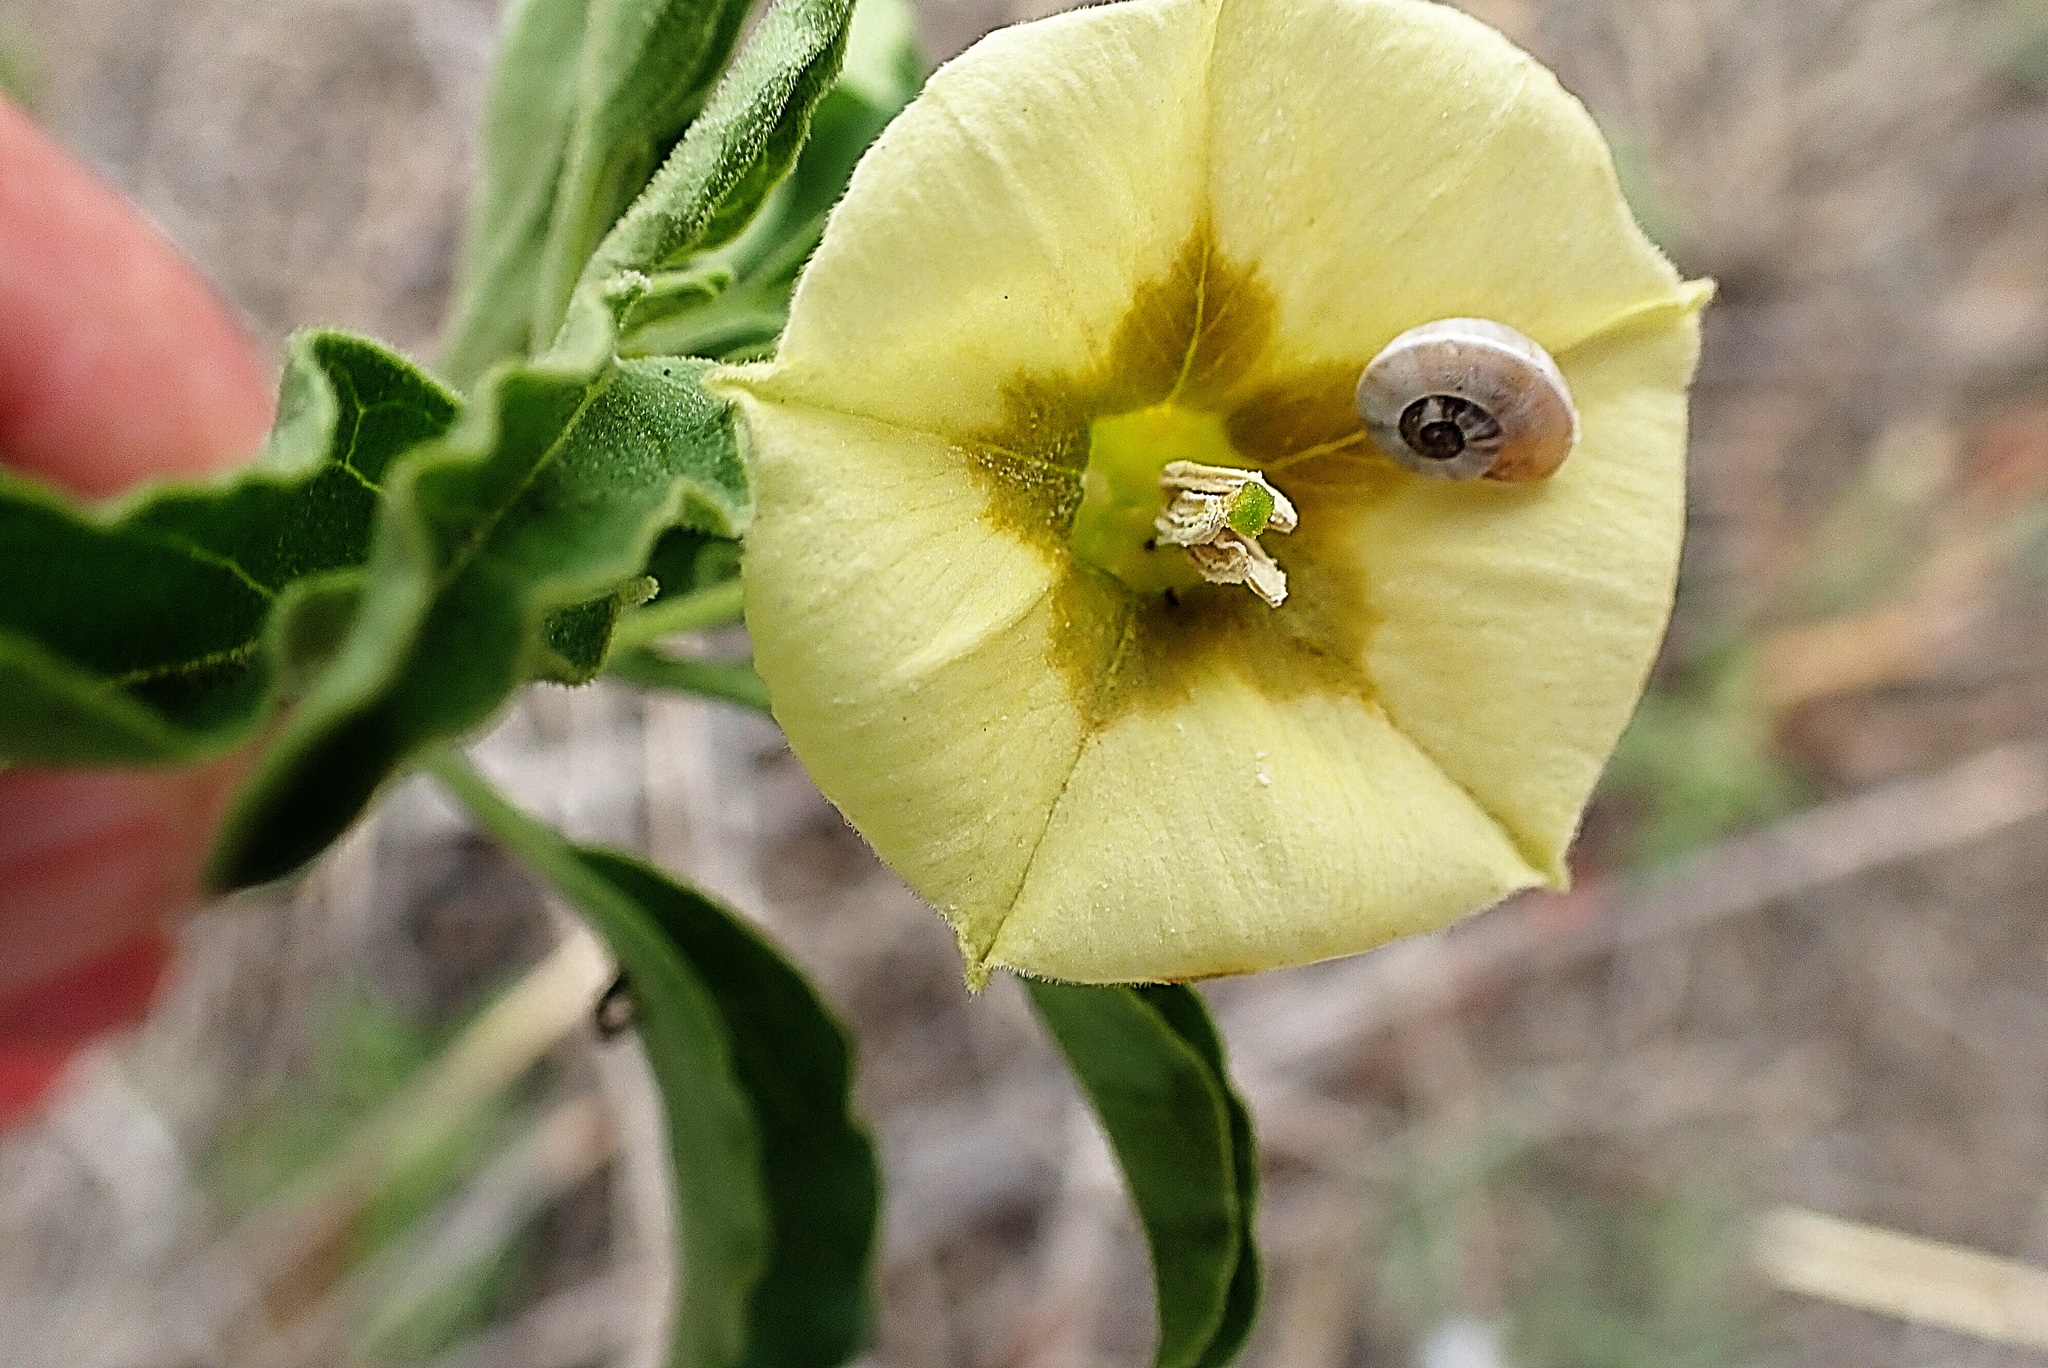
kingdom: Animalia
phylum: Mollusca
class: Gastropoda
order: Stylommatophora
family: Helicidae
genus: Theba
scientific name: Theba pisana
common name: White snail
